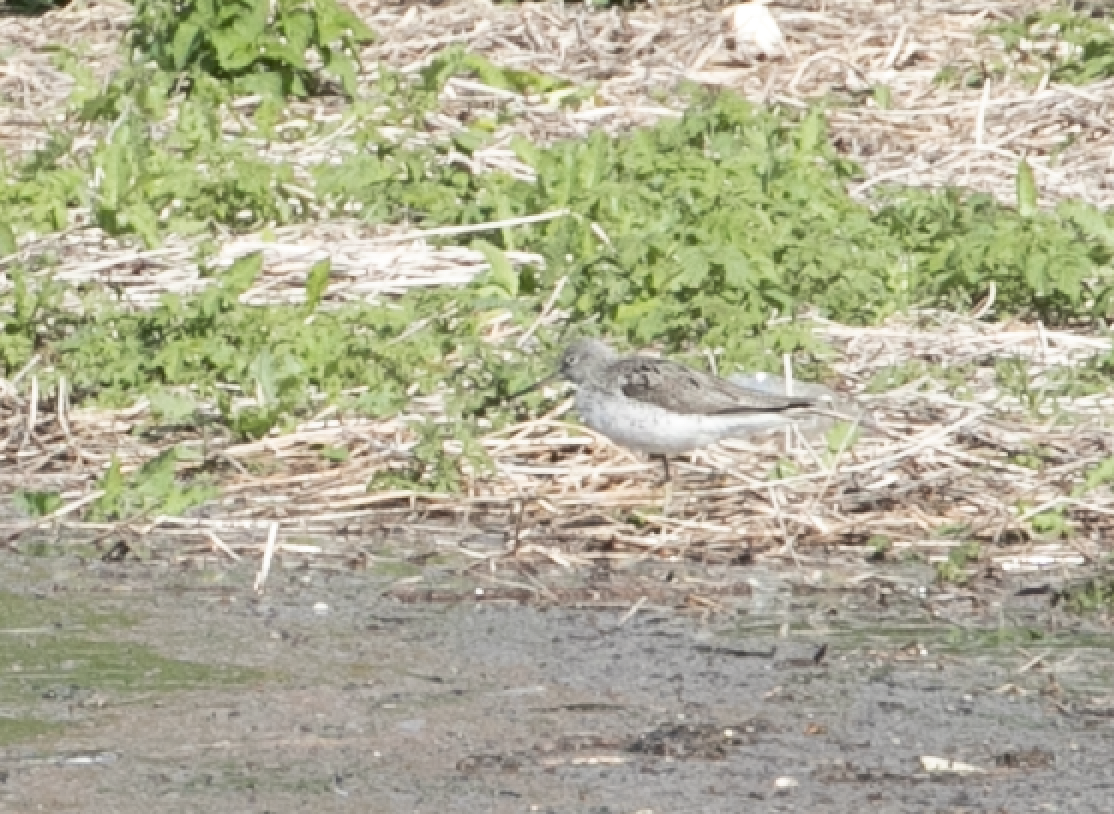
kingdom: Animalia
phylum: Chordata
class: Aves
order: Charadriiformes
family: Scolopacidae
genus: Tringa
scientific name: Tringa nebularia
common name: Common greenshank
